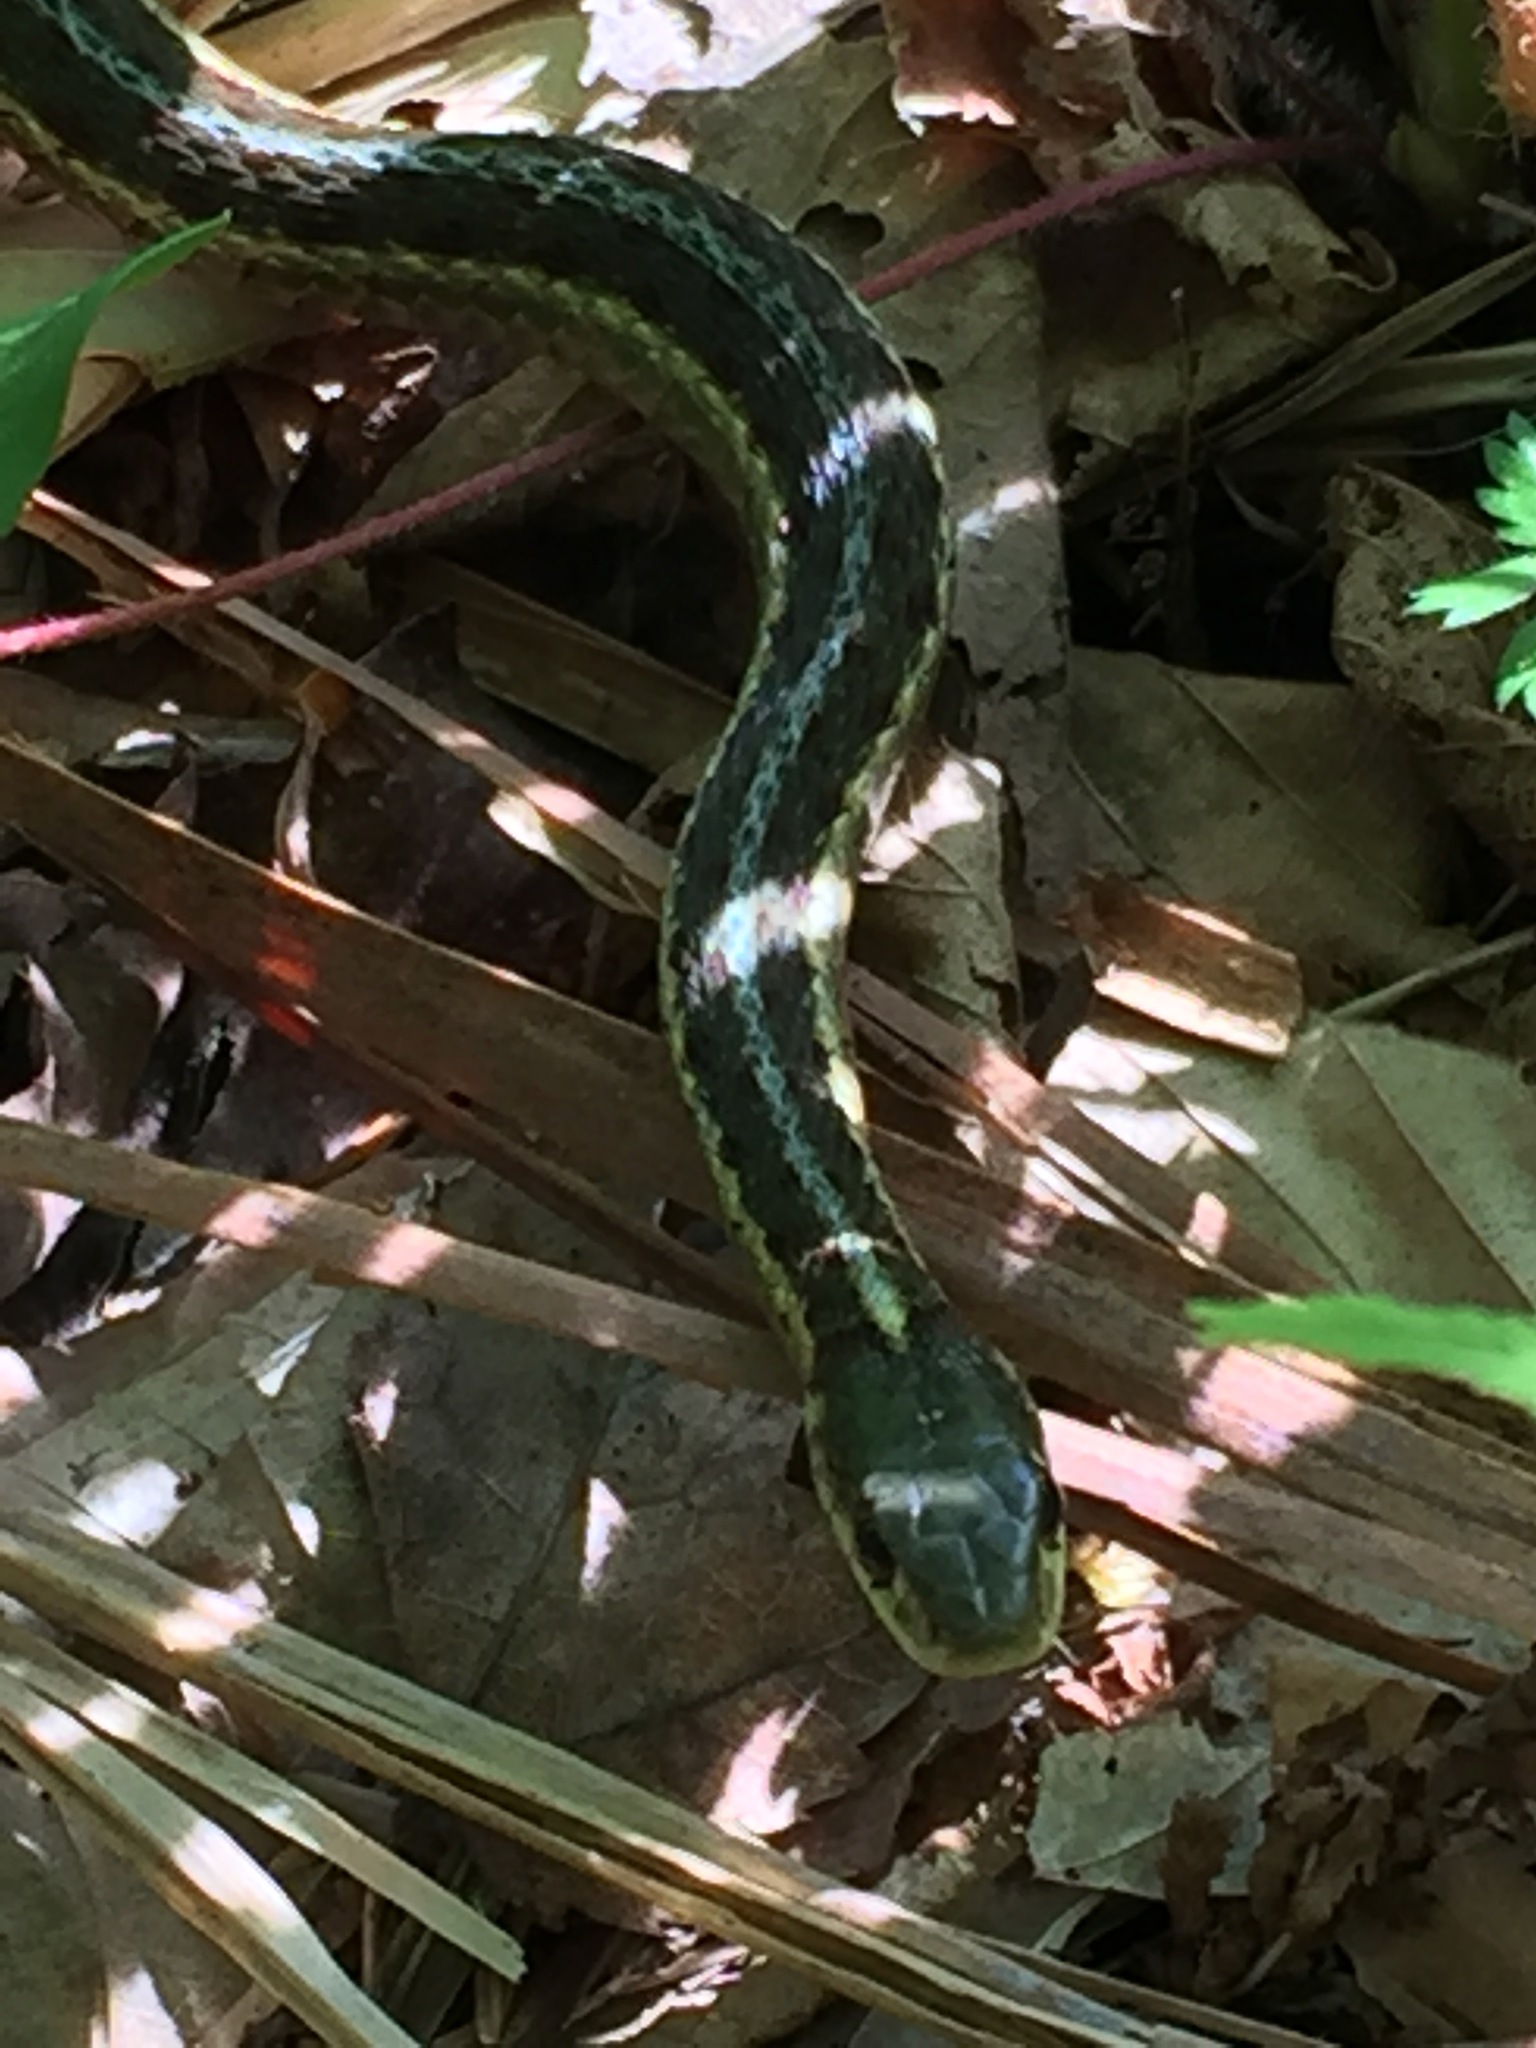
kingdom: Animalia
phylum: Chordata
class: Squamata
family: Colubridae
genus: Thamnophis
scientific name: Thamnophis sirtalis
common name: Common garter snake
